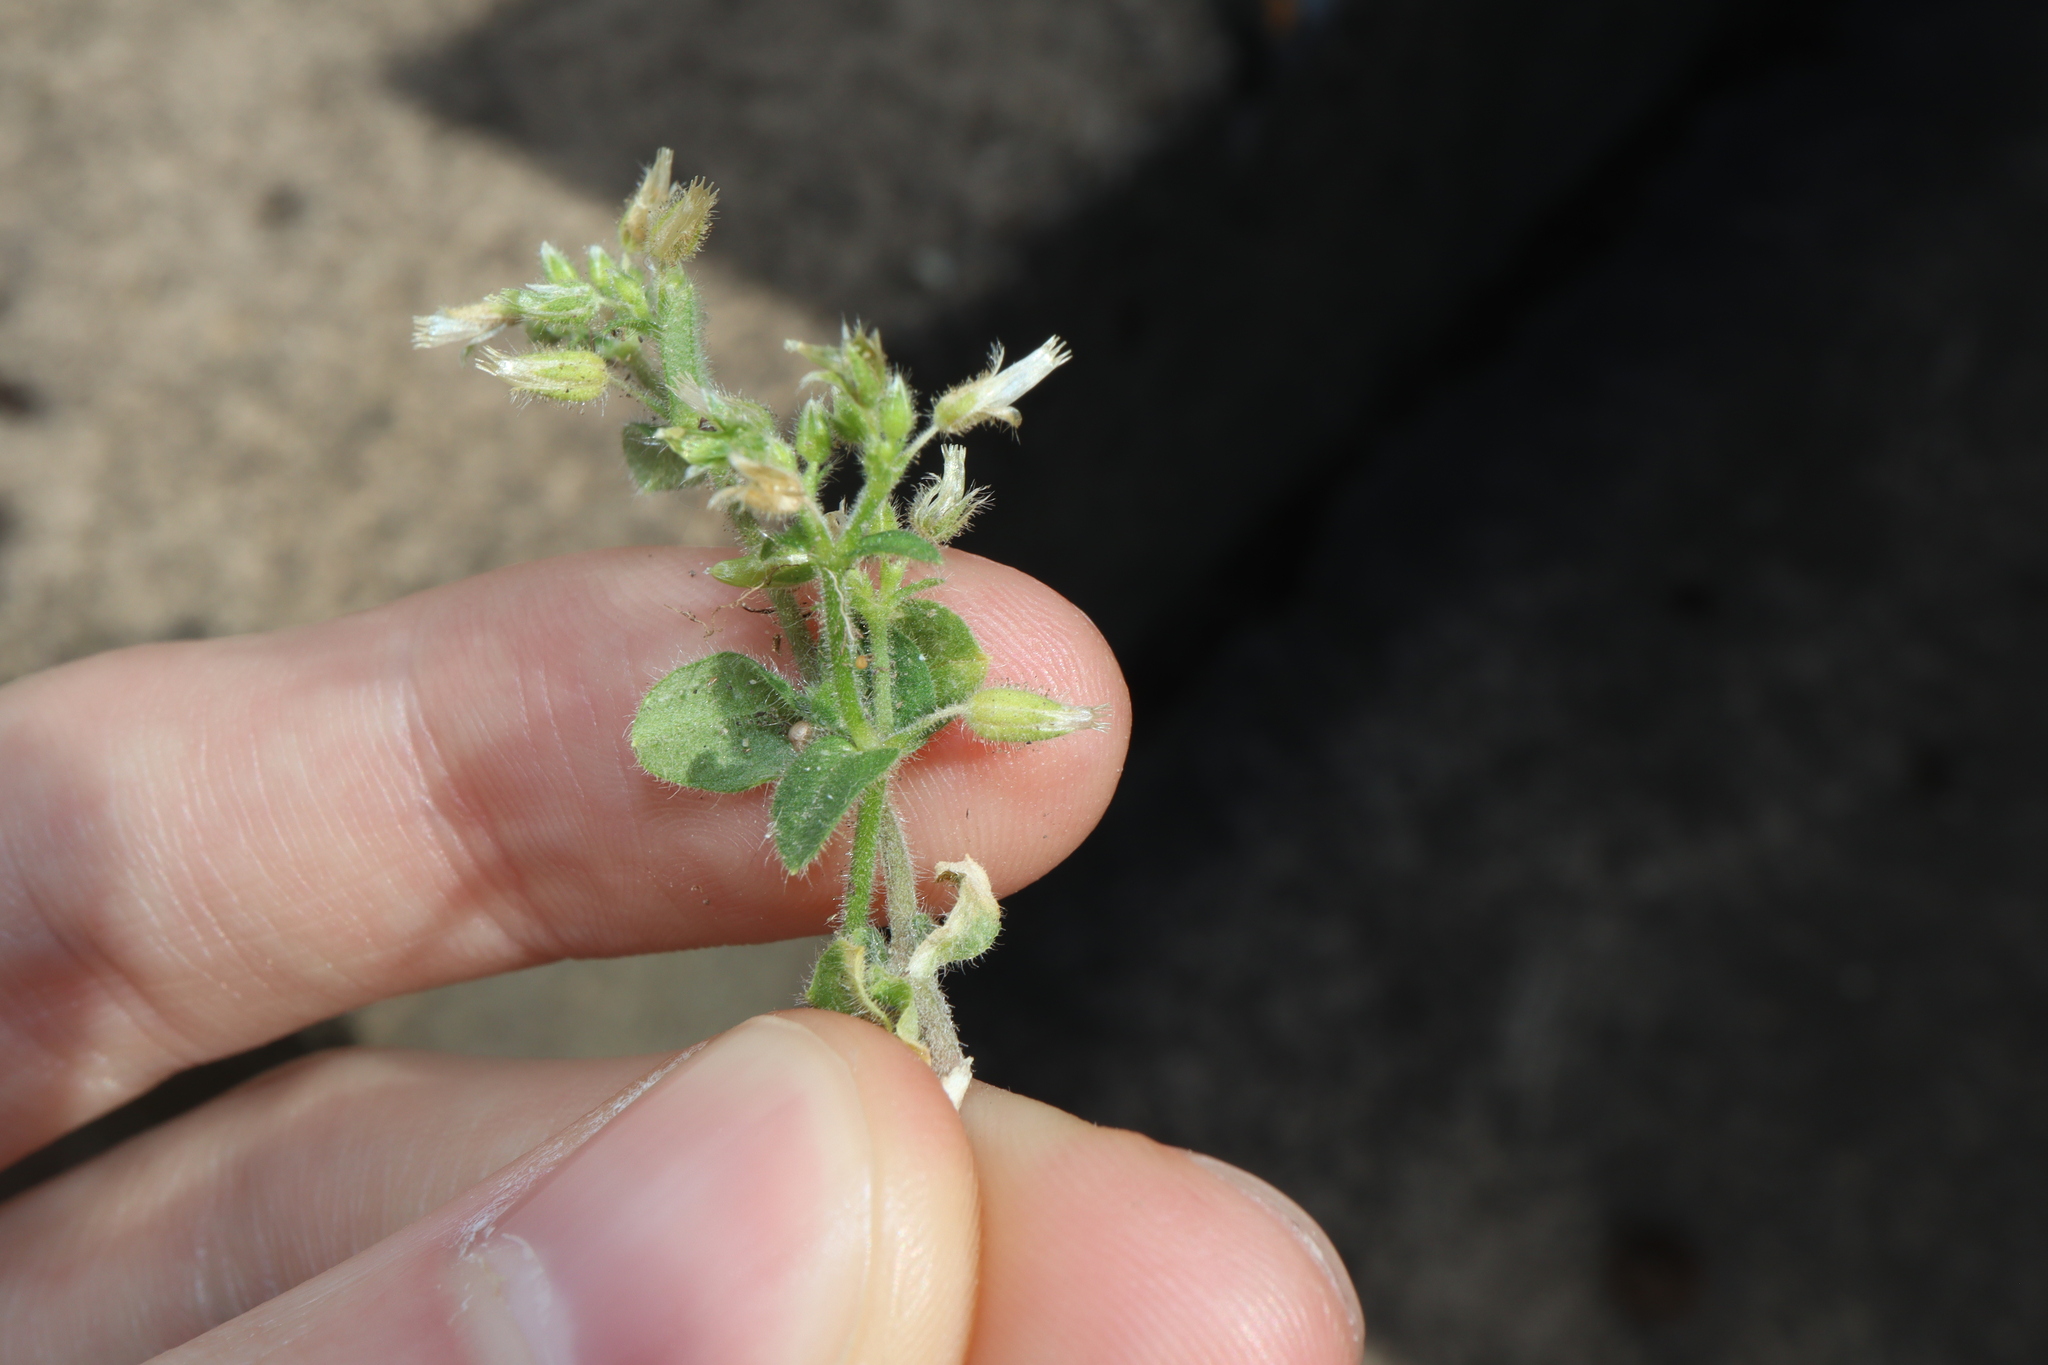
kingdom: Plantae
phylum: Tracheophyta
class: Magnoliopsida
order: Caryophyllales
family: Caryophyllaceae
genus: Cerastium
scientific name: Cerastium glomeratum
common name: Sticky chickweed
